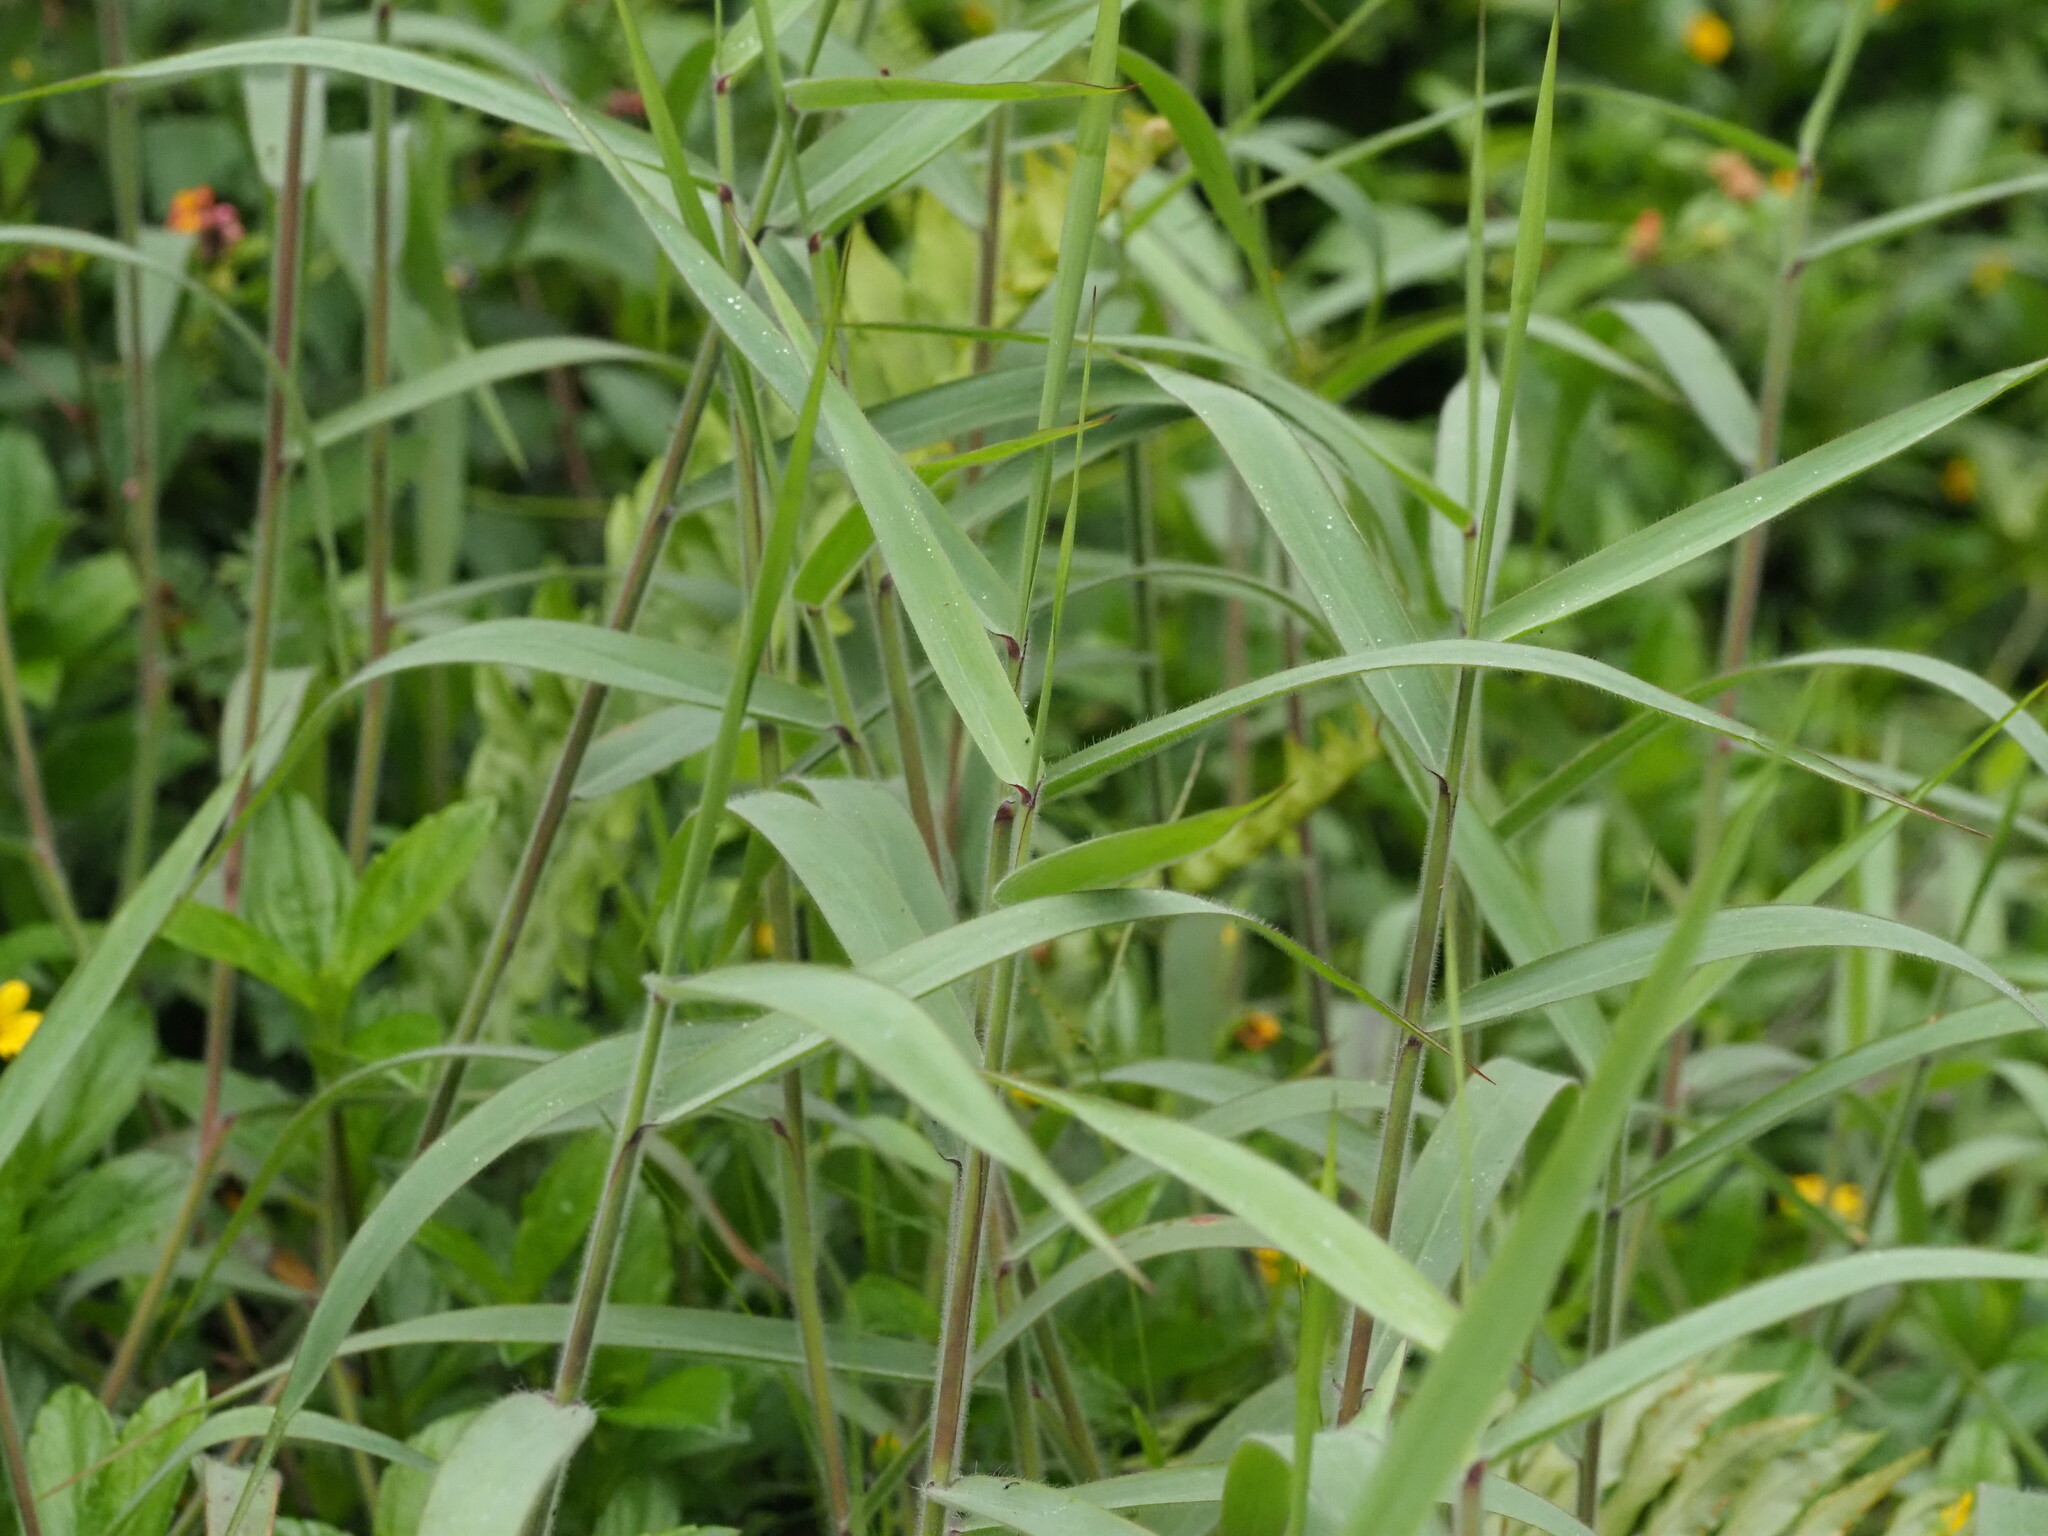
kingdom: Plantae
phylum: Tracheophyta
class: Liliopsida
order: Poales
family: Poaceae
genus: Melinis
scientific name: Melinis minutiflora
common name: Molassesgrass
